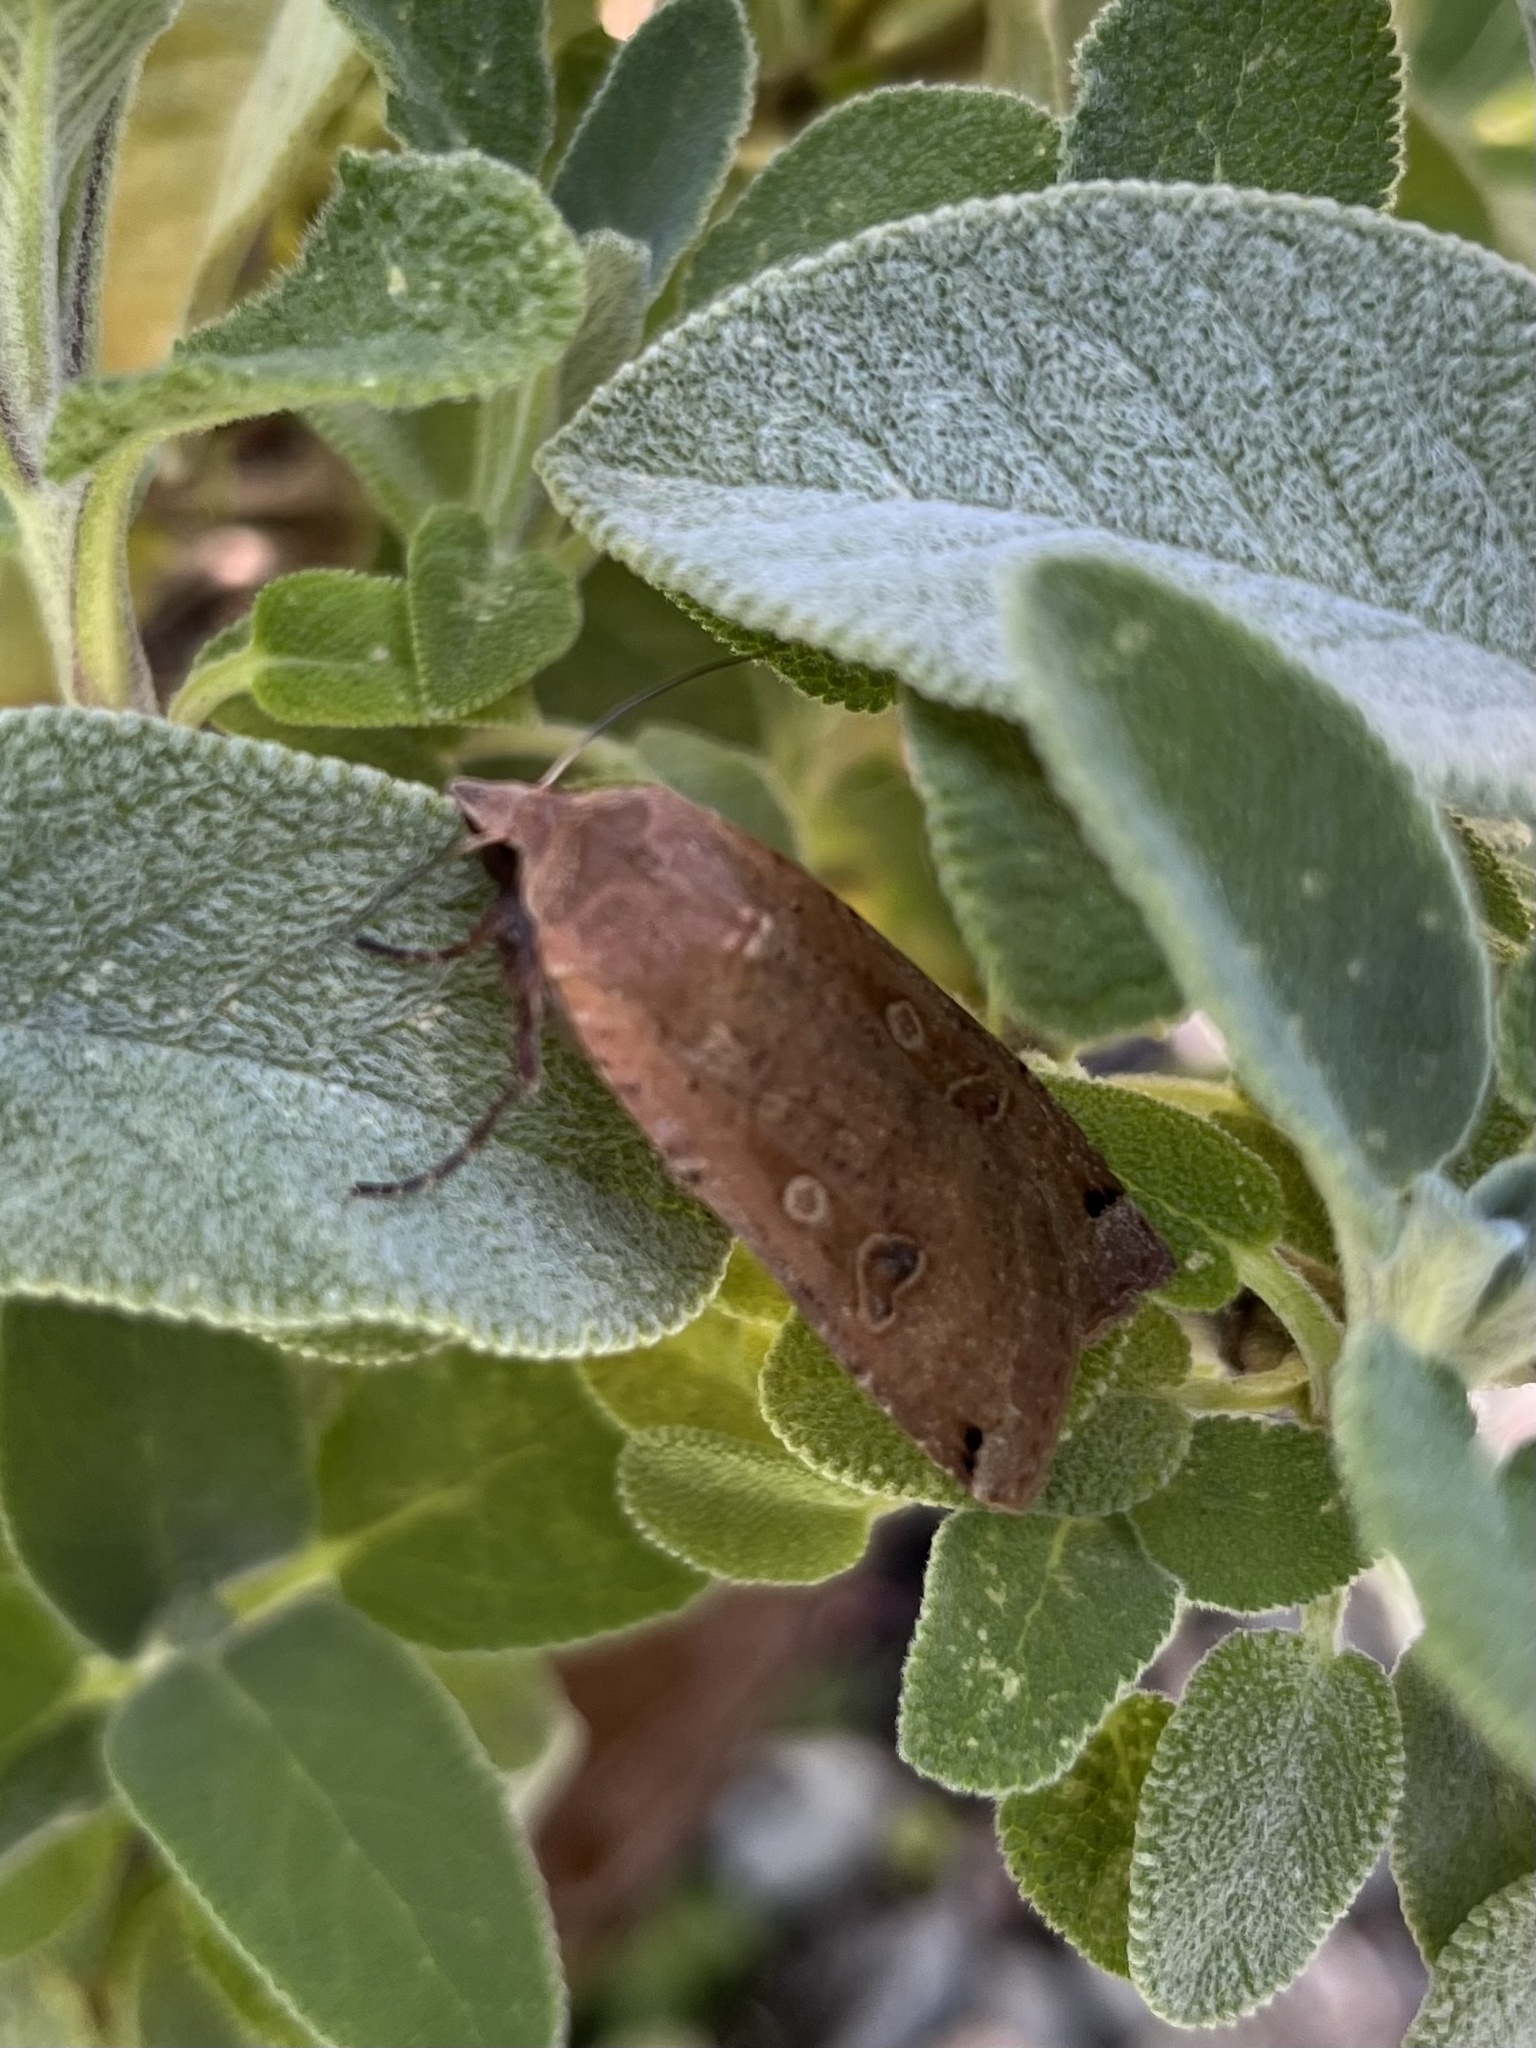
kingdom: Animalia
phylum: Arthropoda
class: Insecta
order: Lepidoptera
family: Noctuidae
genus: Noctua
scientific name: Noctua pronuba
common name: Large yellow underwing
